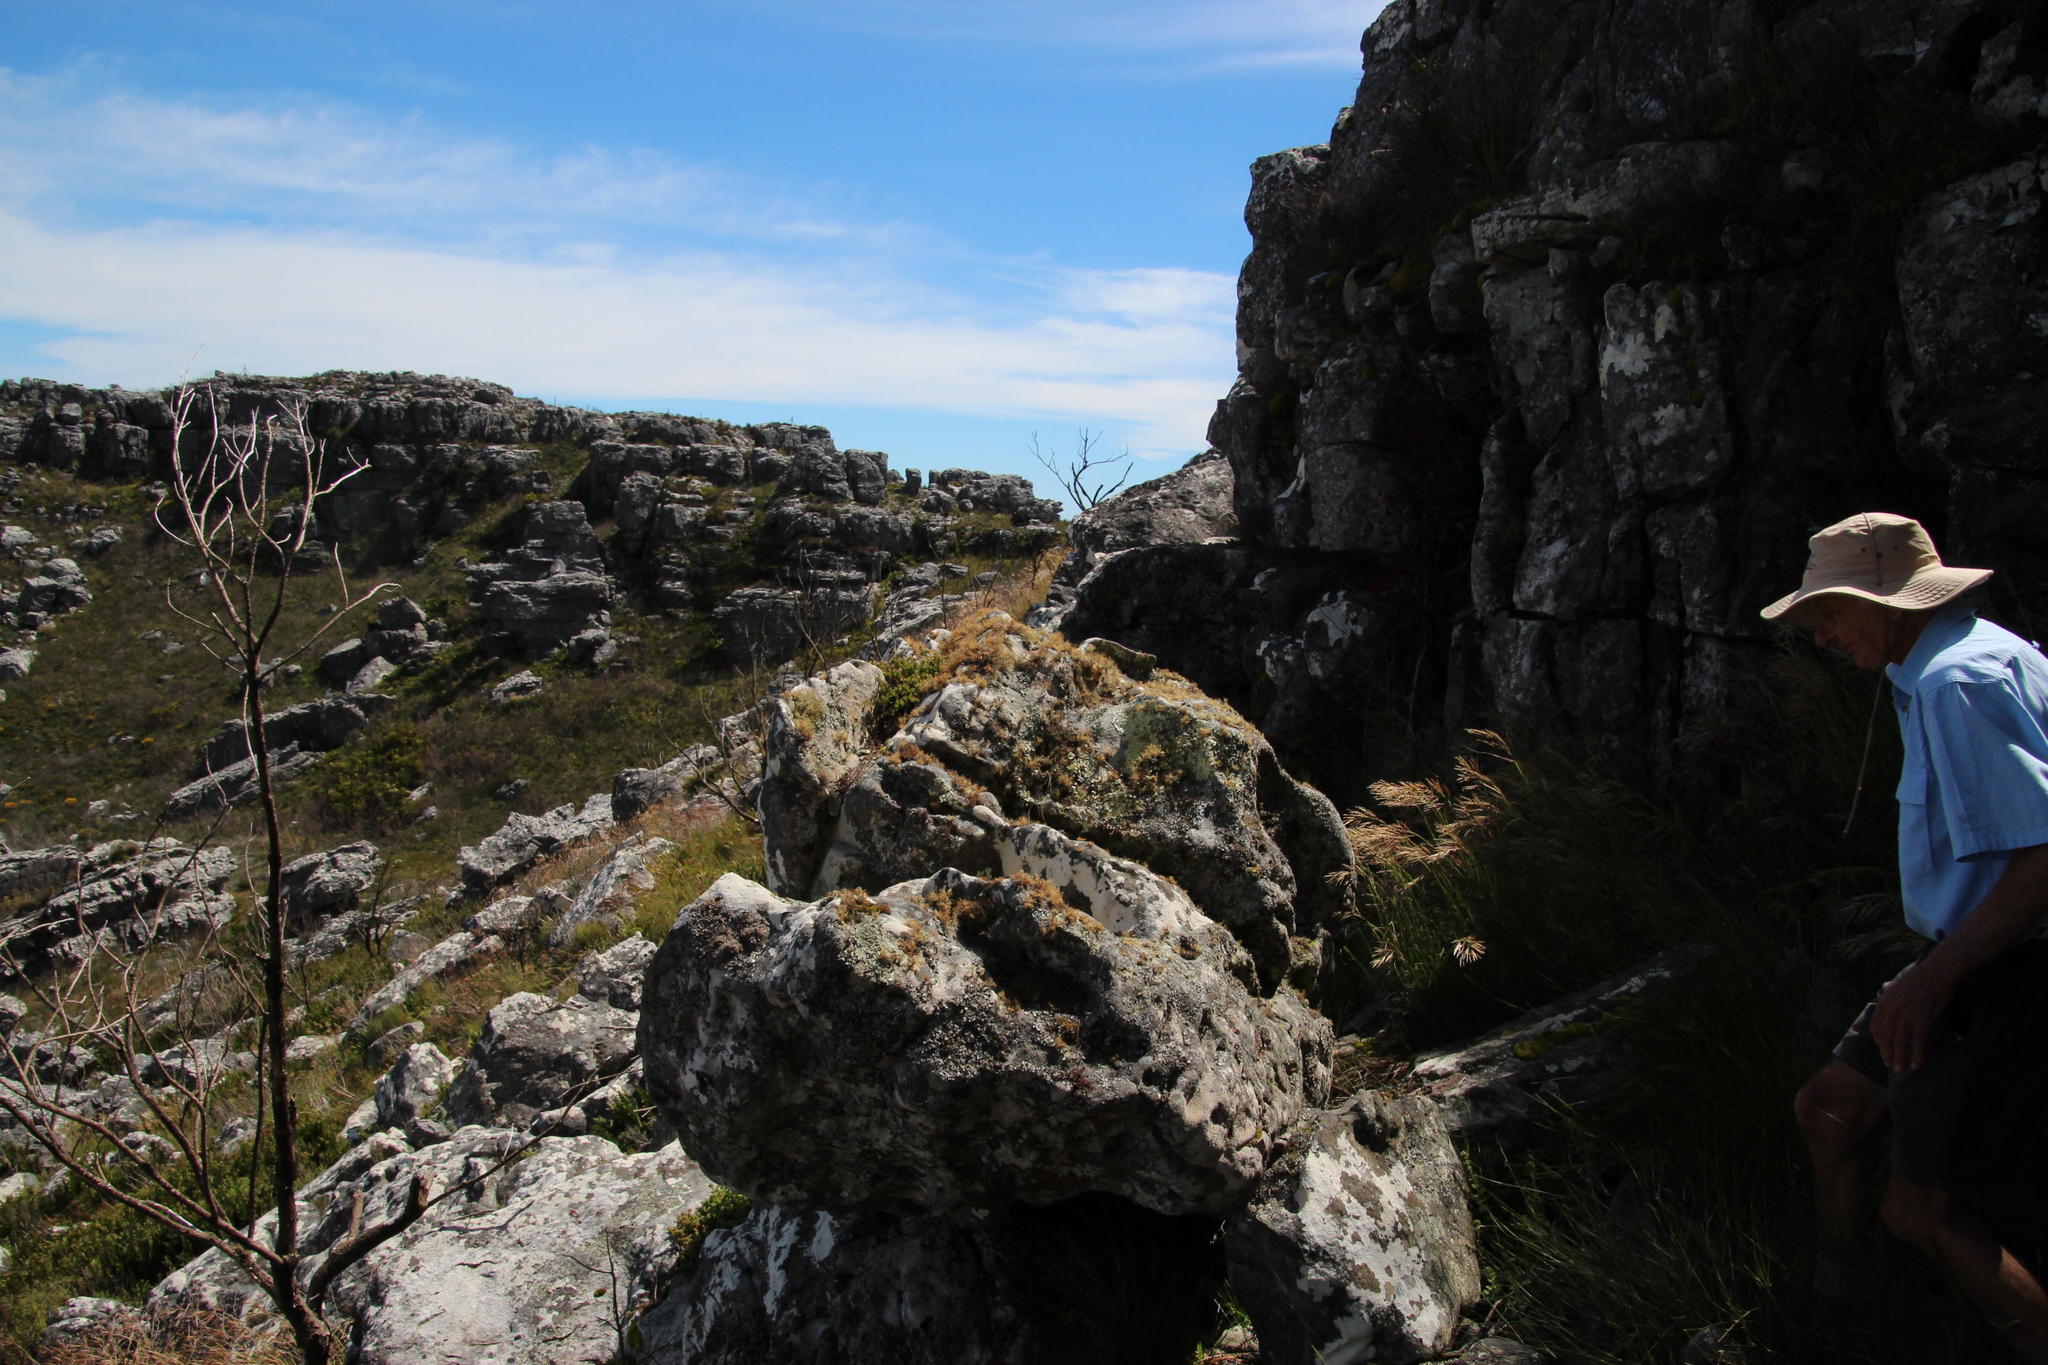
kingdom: Fungi
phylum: Ascomycota
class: Lecanoromycetes
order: Lecanorales
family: Parmeliaceae
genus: Usnea
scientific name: Usnea maculata
